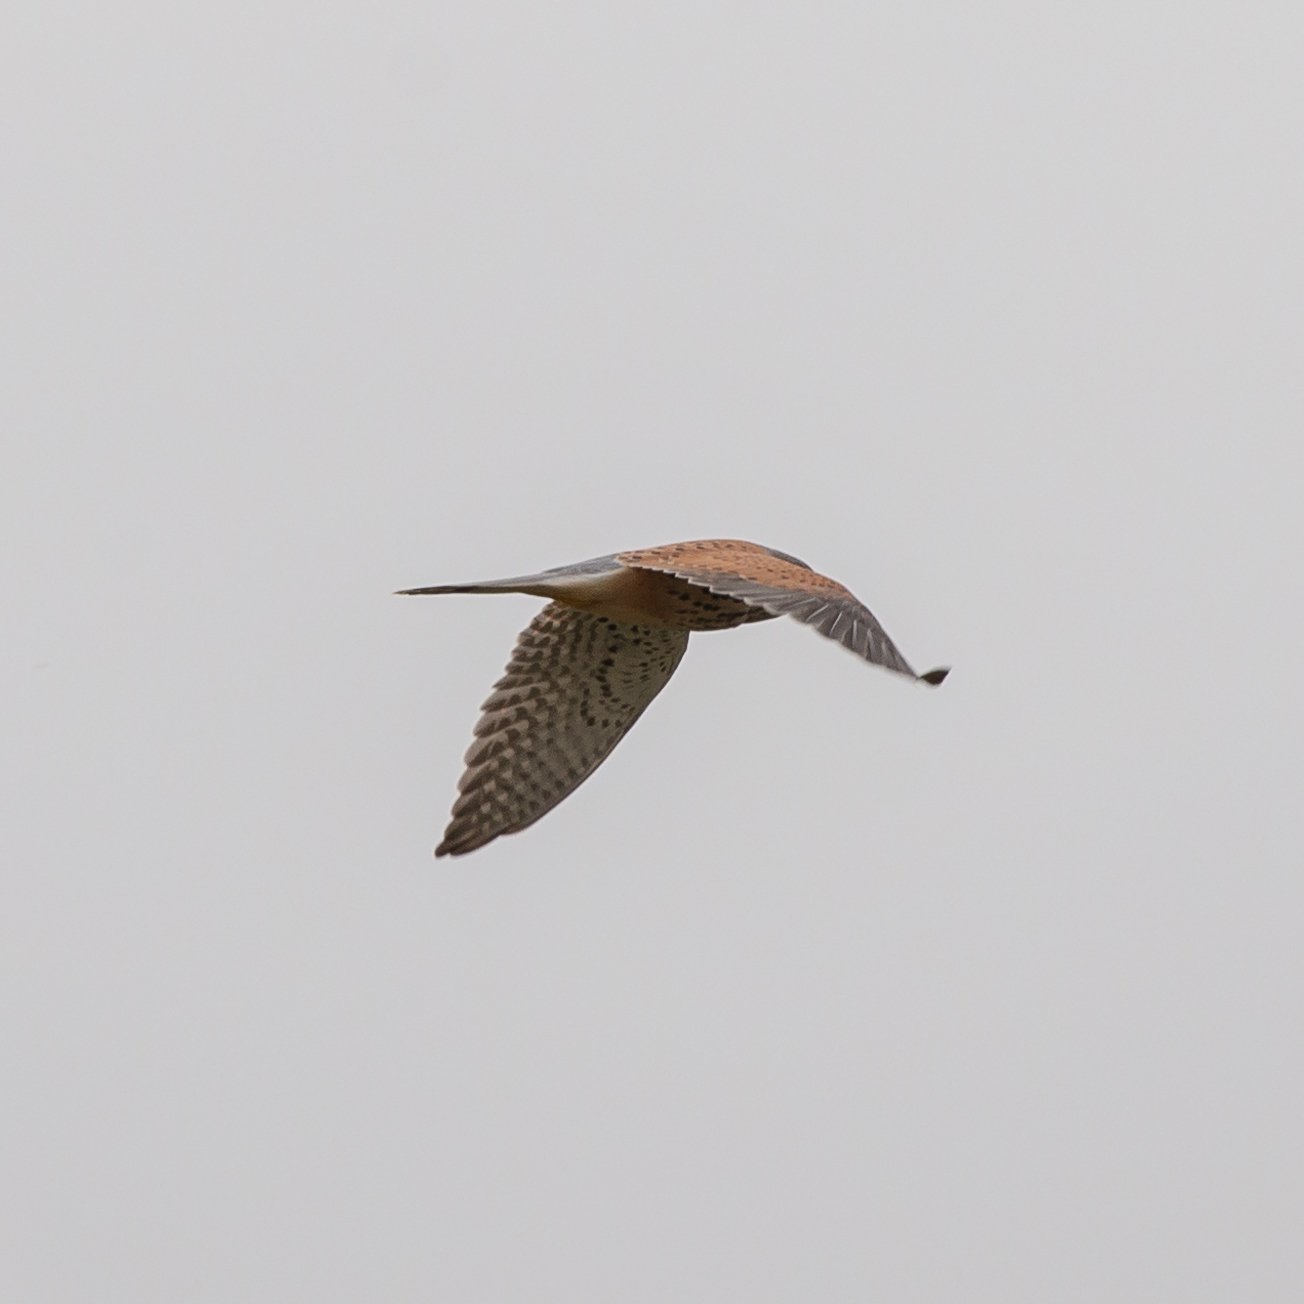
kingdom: Animalia
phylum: Chordata
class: Aves
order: Falconiformes
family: Falconidae
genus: Falco
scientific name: Falco tinnunculus
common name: Common kestrel
